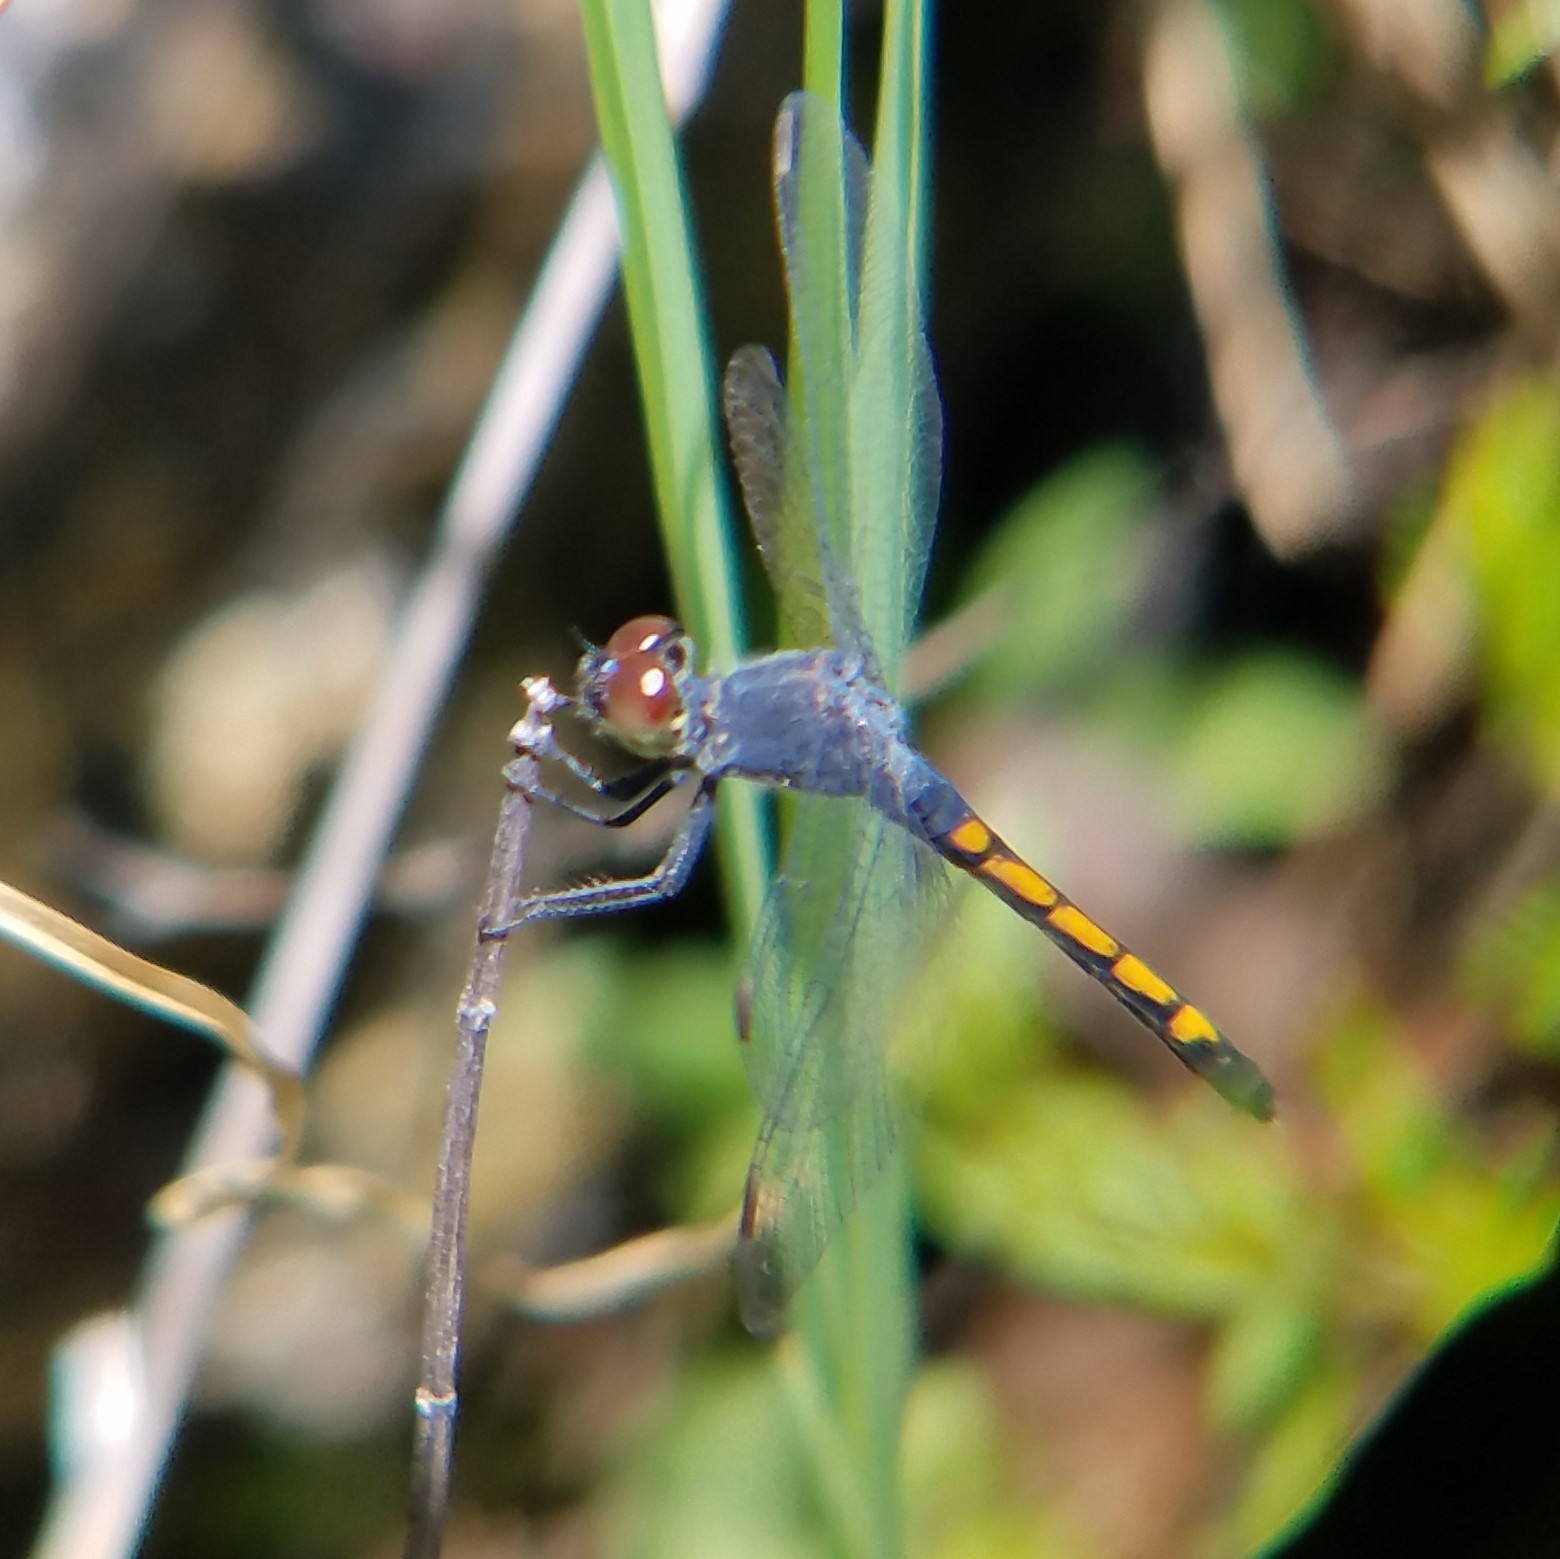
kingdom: Animalia
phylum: Arthropoda
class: Insecta
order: Odonata
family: Libellulidae
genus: Erythrodiplax
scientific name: Erythrodiplax berenice
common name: Seaside dragonlet
